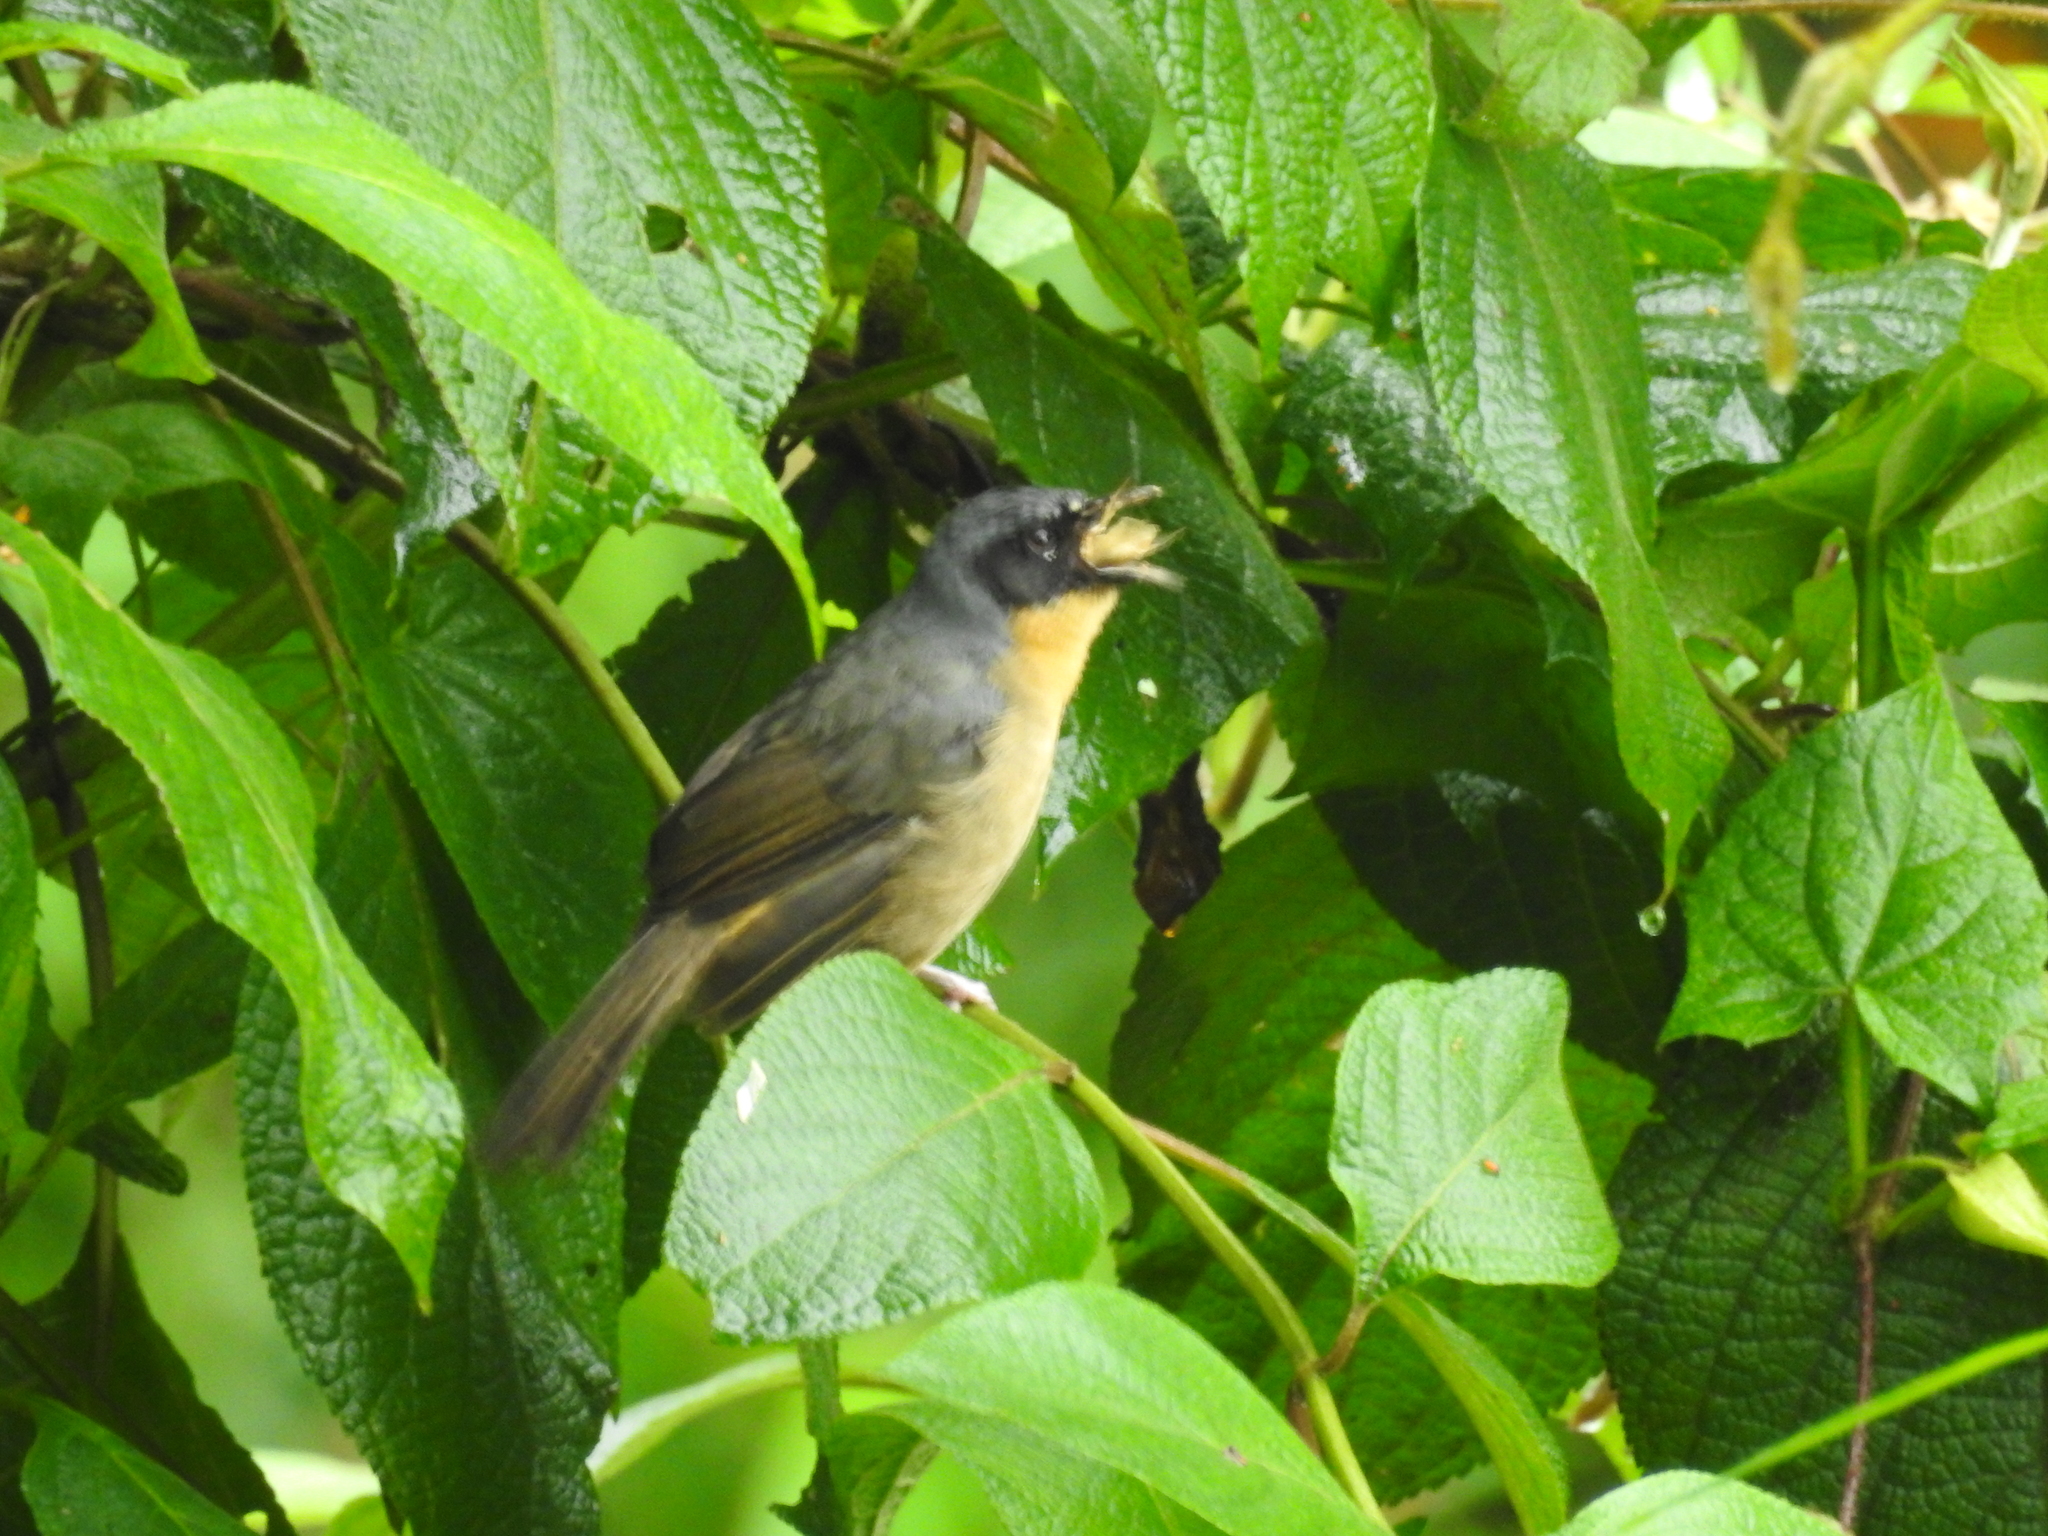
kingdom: Animalia
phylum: Chordata
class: Aves
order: Passeriformes
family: Thraupidae
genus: Sphenopsis
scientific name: Sphenopsis melanotis
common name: Black-eared hemispingus
